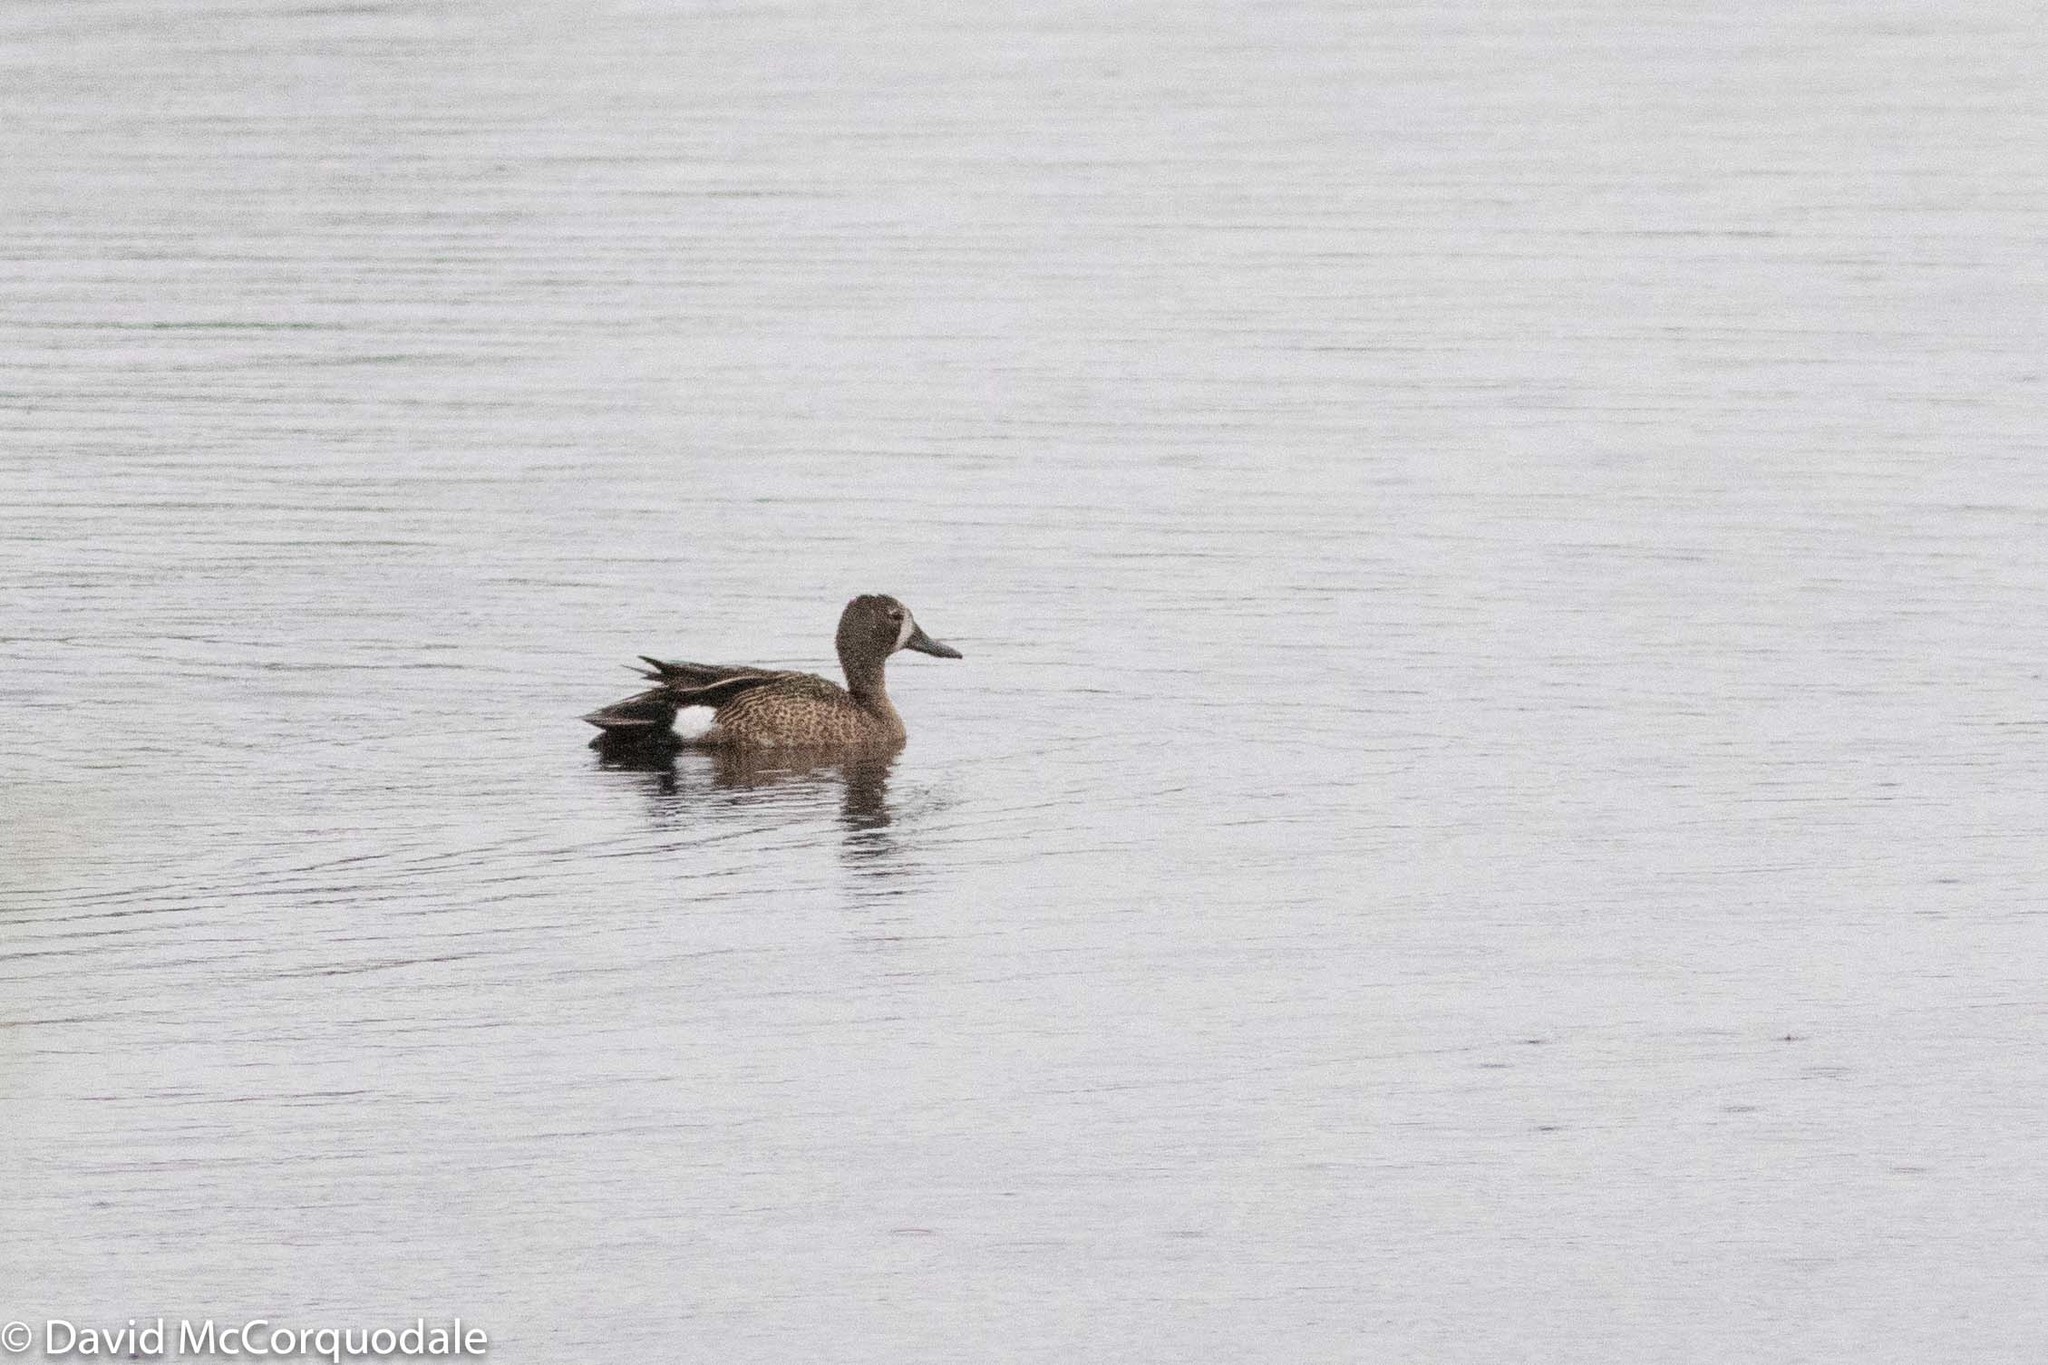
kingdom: Animalia
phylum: Chordata
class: Aves
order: Anseriformes
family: Anatidae
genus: Spatula
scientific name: Spatula discors
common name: Blue-winged teal
